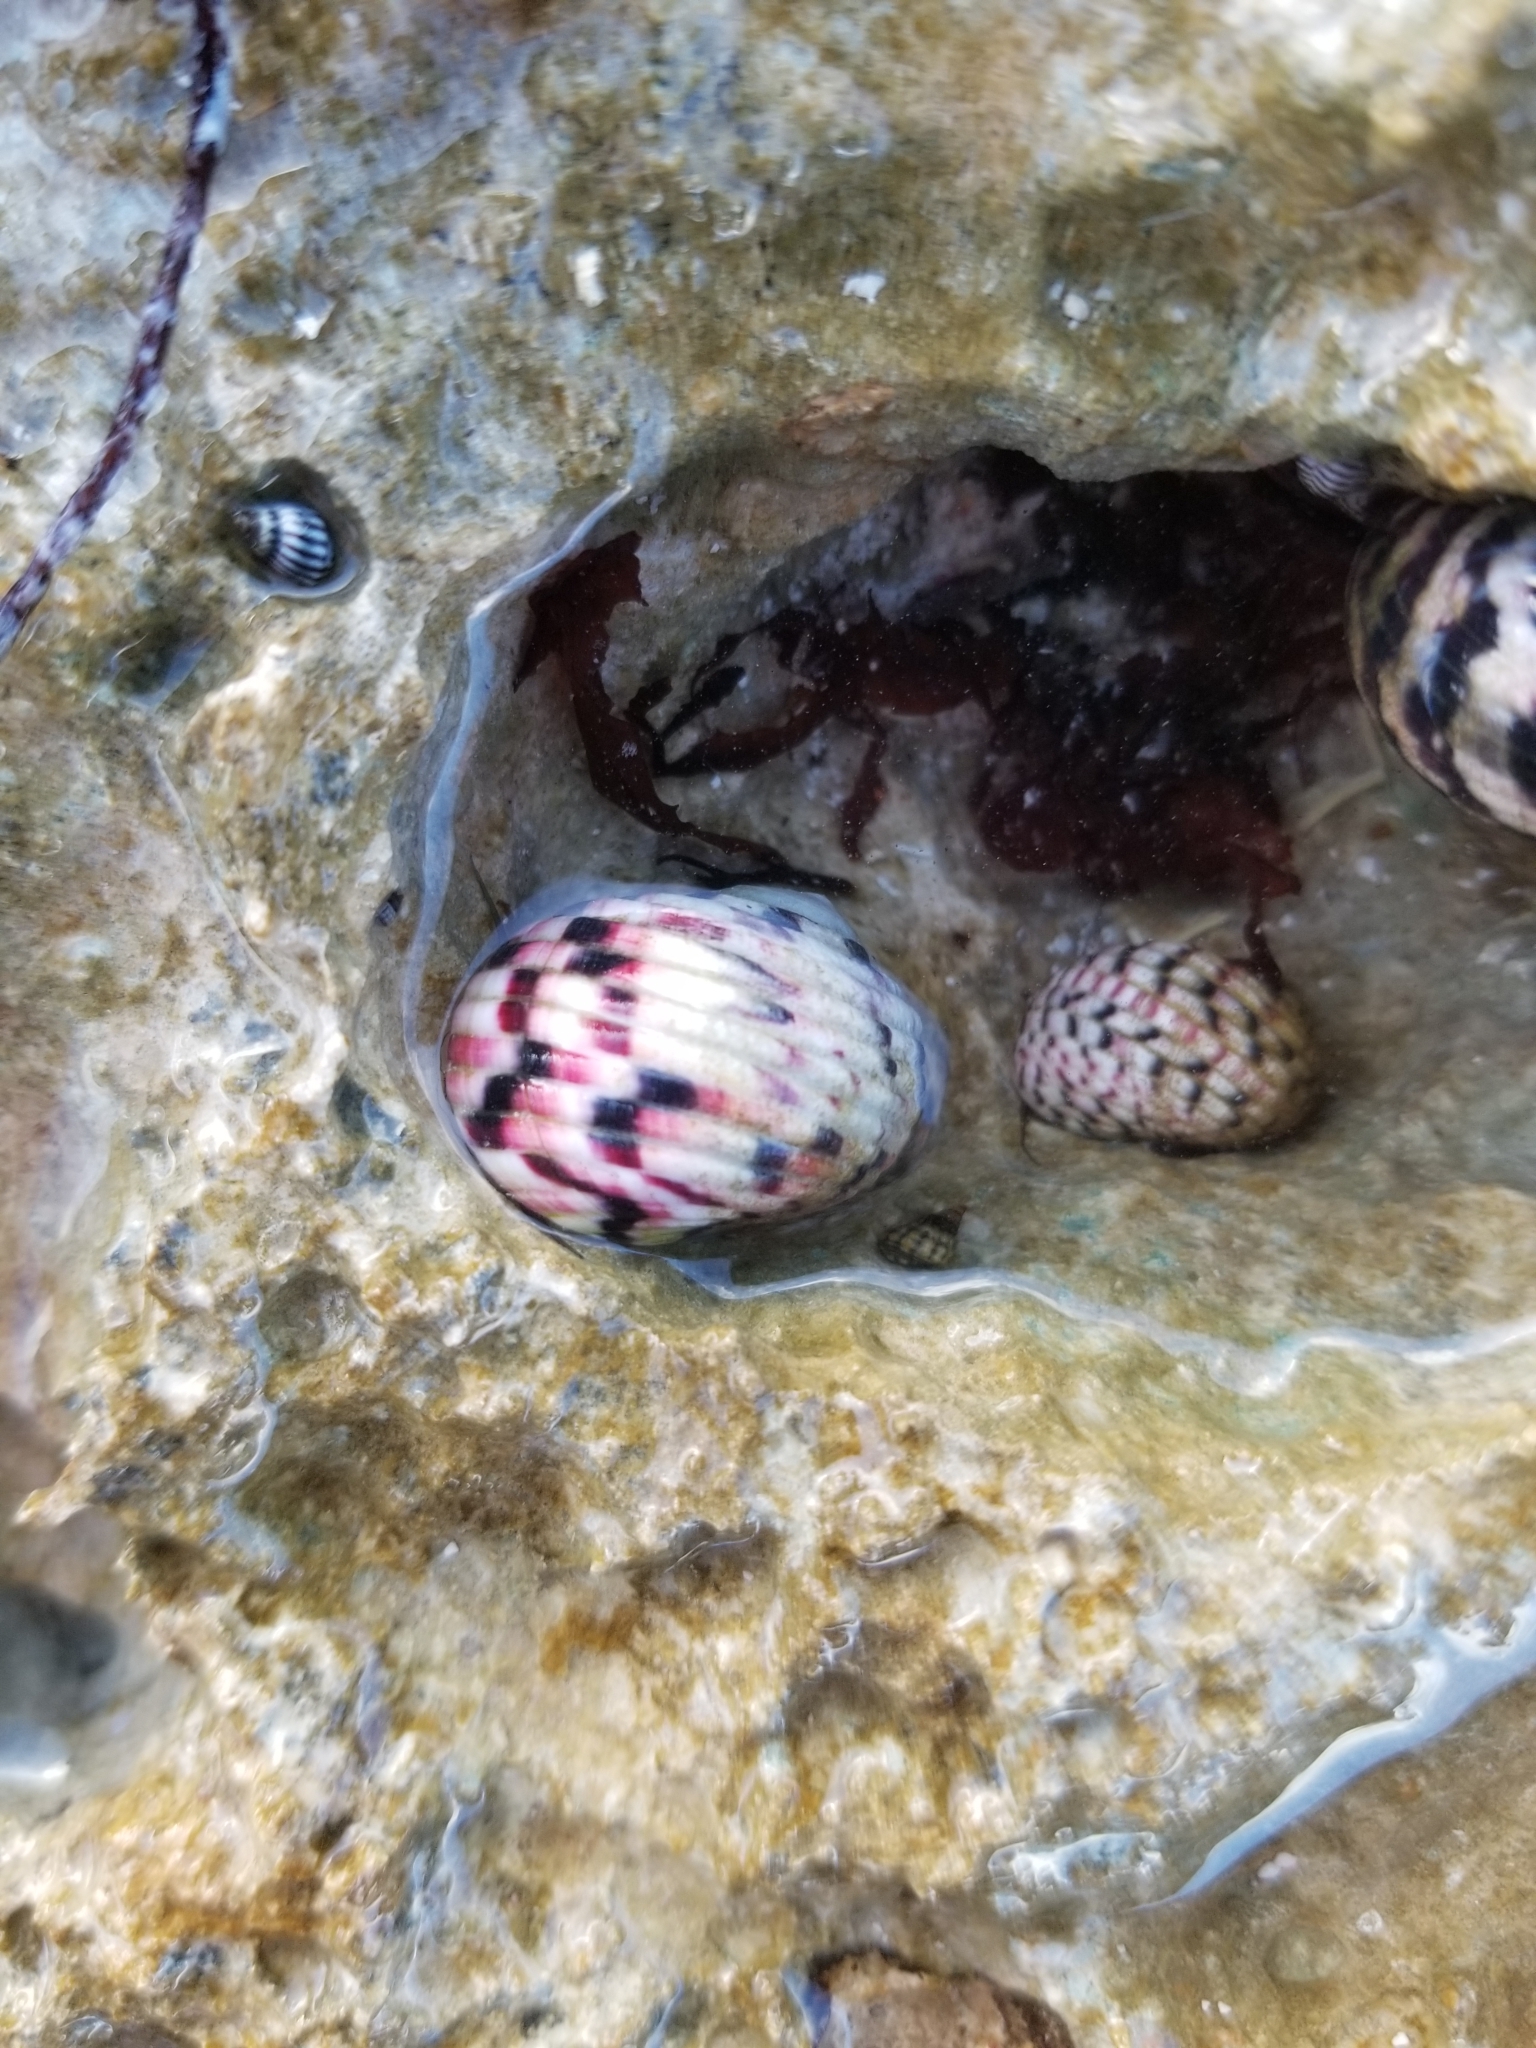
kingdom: Animalia
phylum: Mollusca
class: Gastropoda
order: Cycloneritida
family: Neritidae
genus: Nerita
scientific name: Nerita versicolor
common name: Four-tooth nerite
